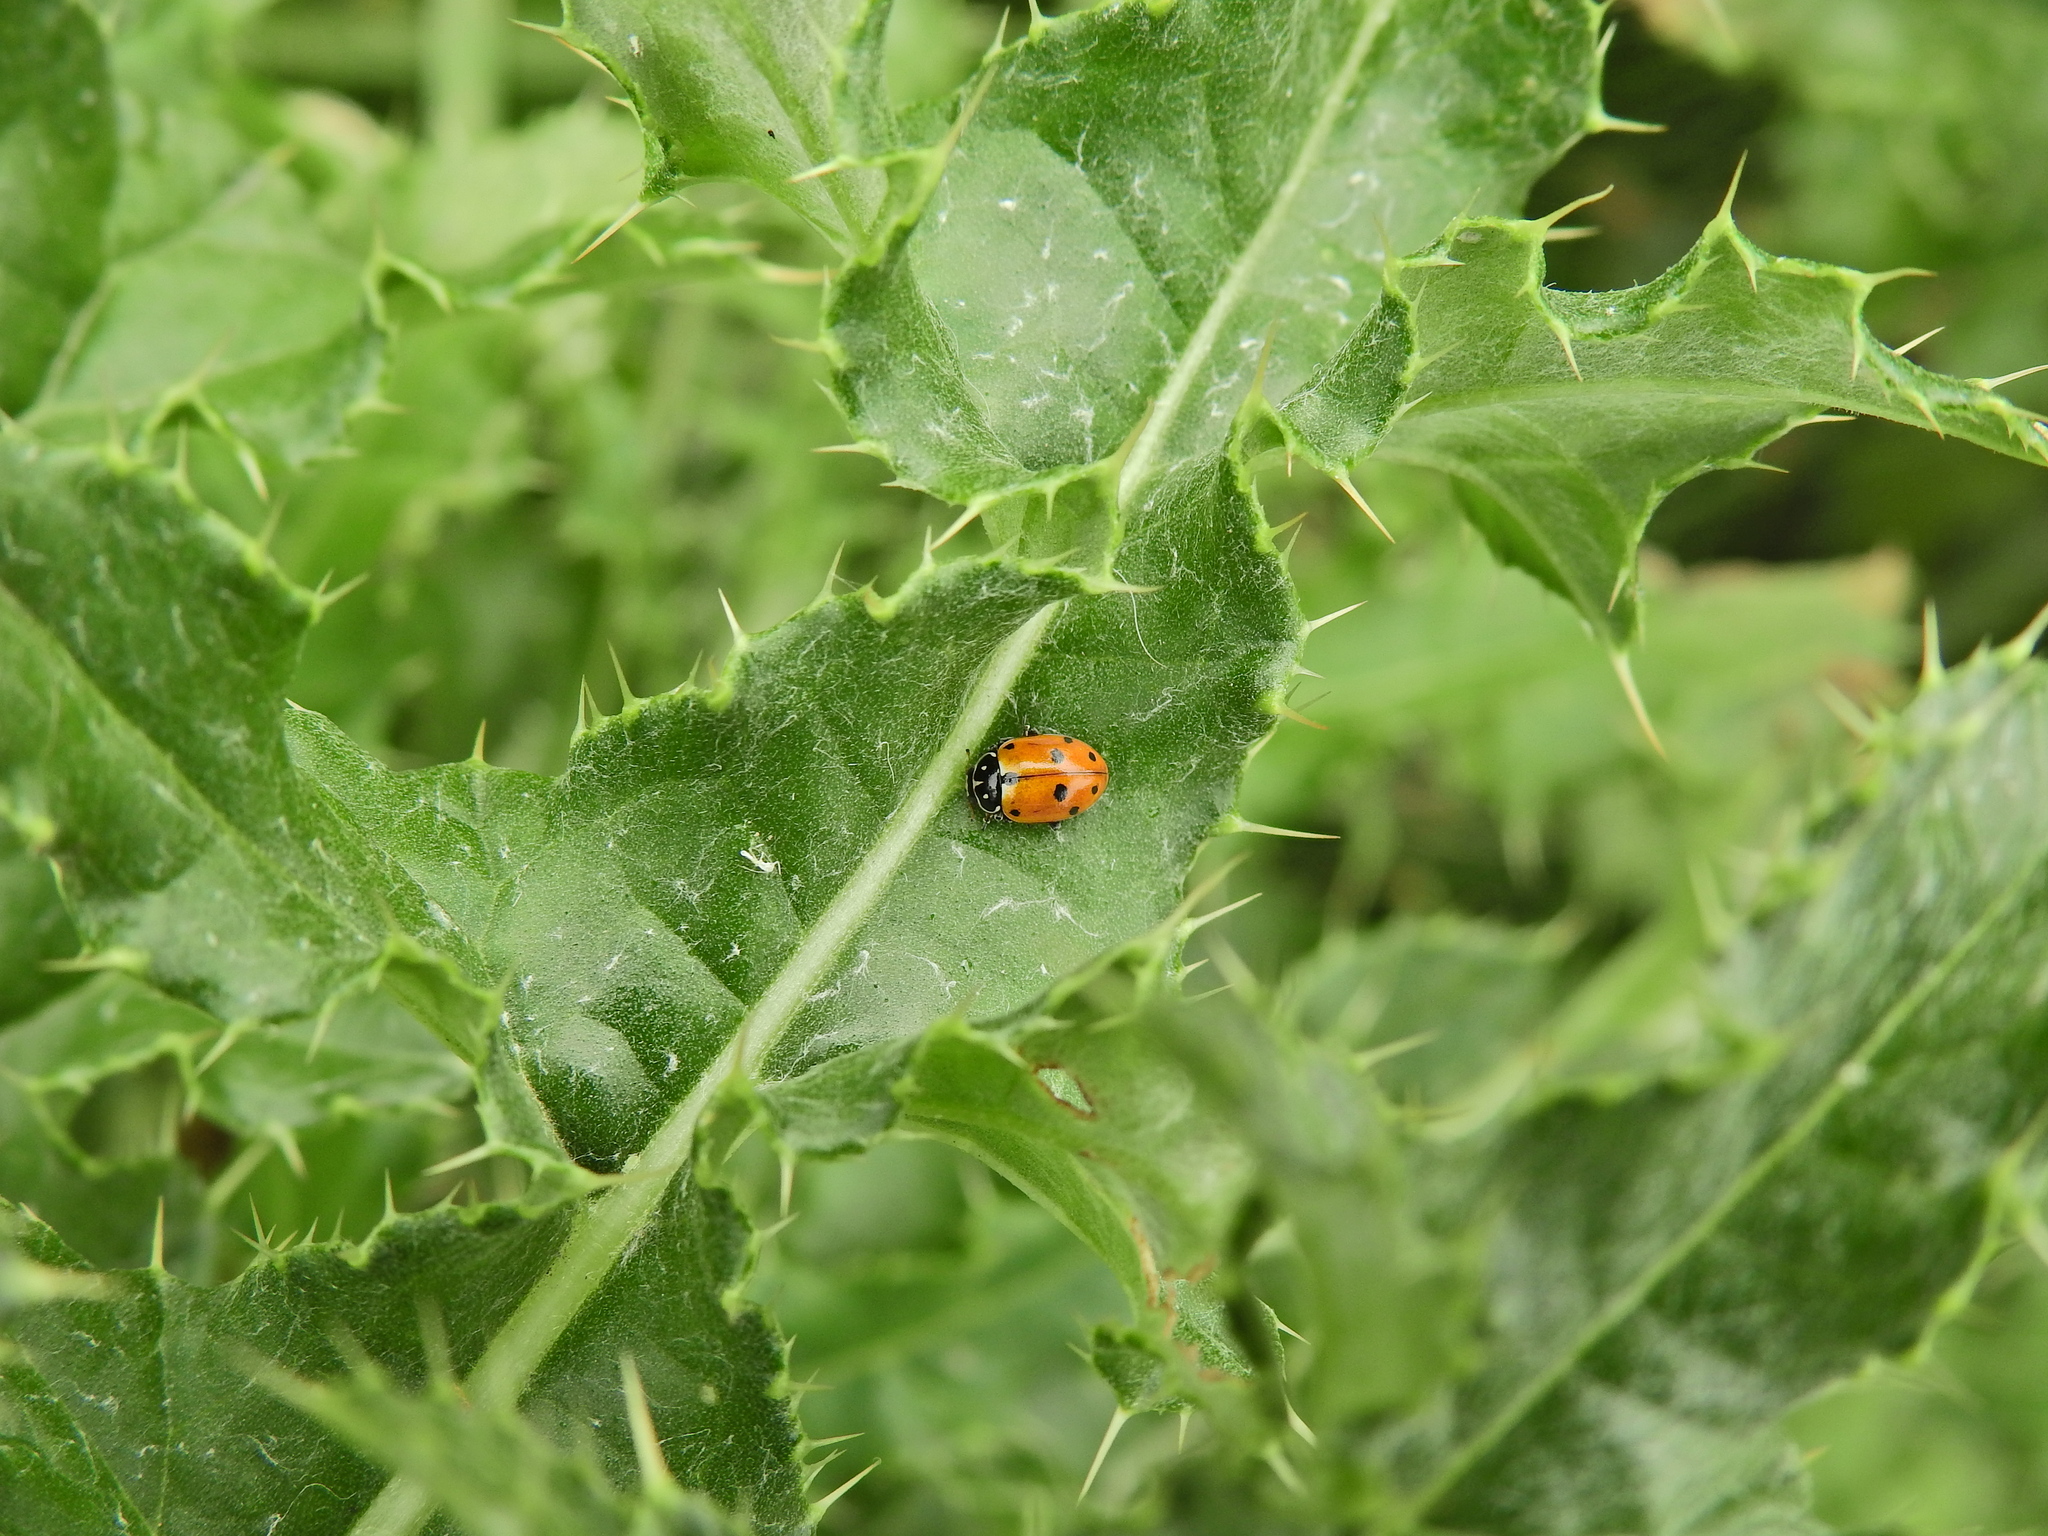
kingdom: Animalia
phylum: Arthropoda
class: Insecta
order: Coleoptera
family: Coccinellidae
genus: Hippodamia
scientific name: Hippodamia variegata
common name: Ladybird beetle
